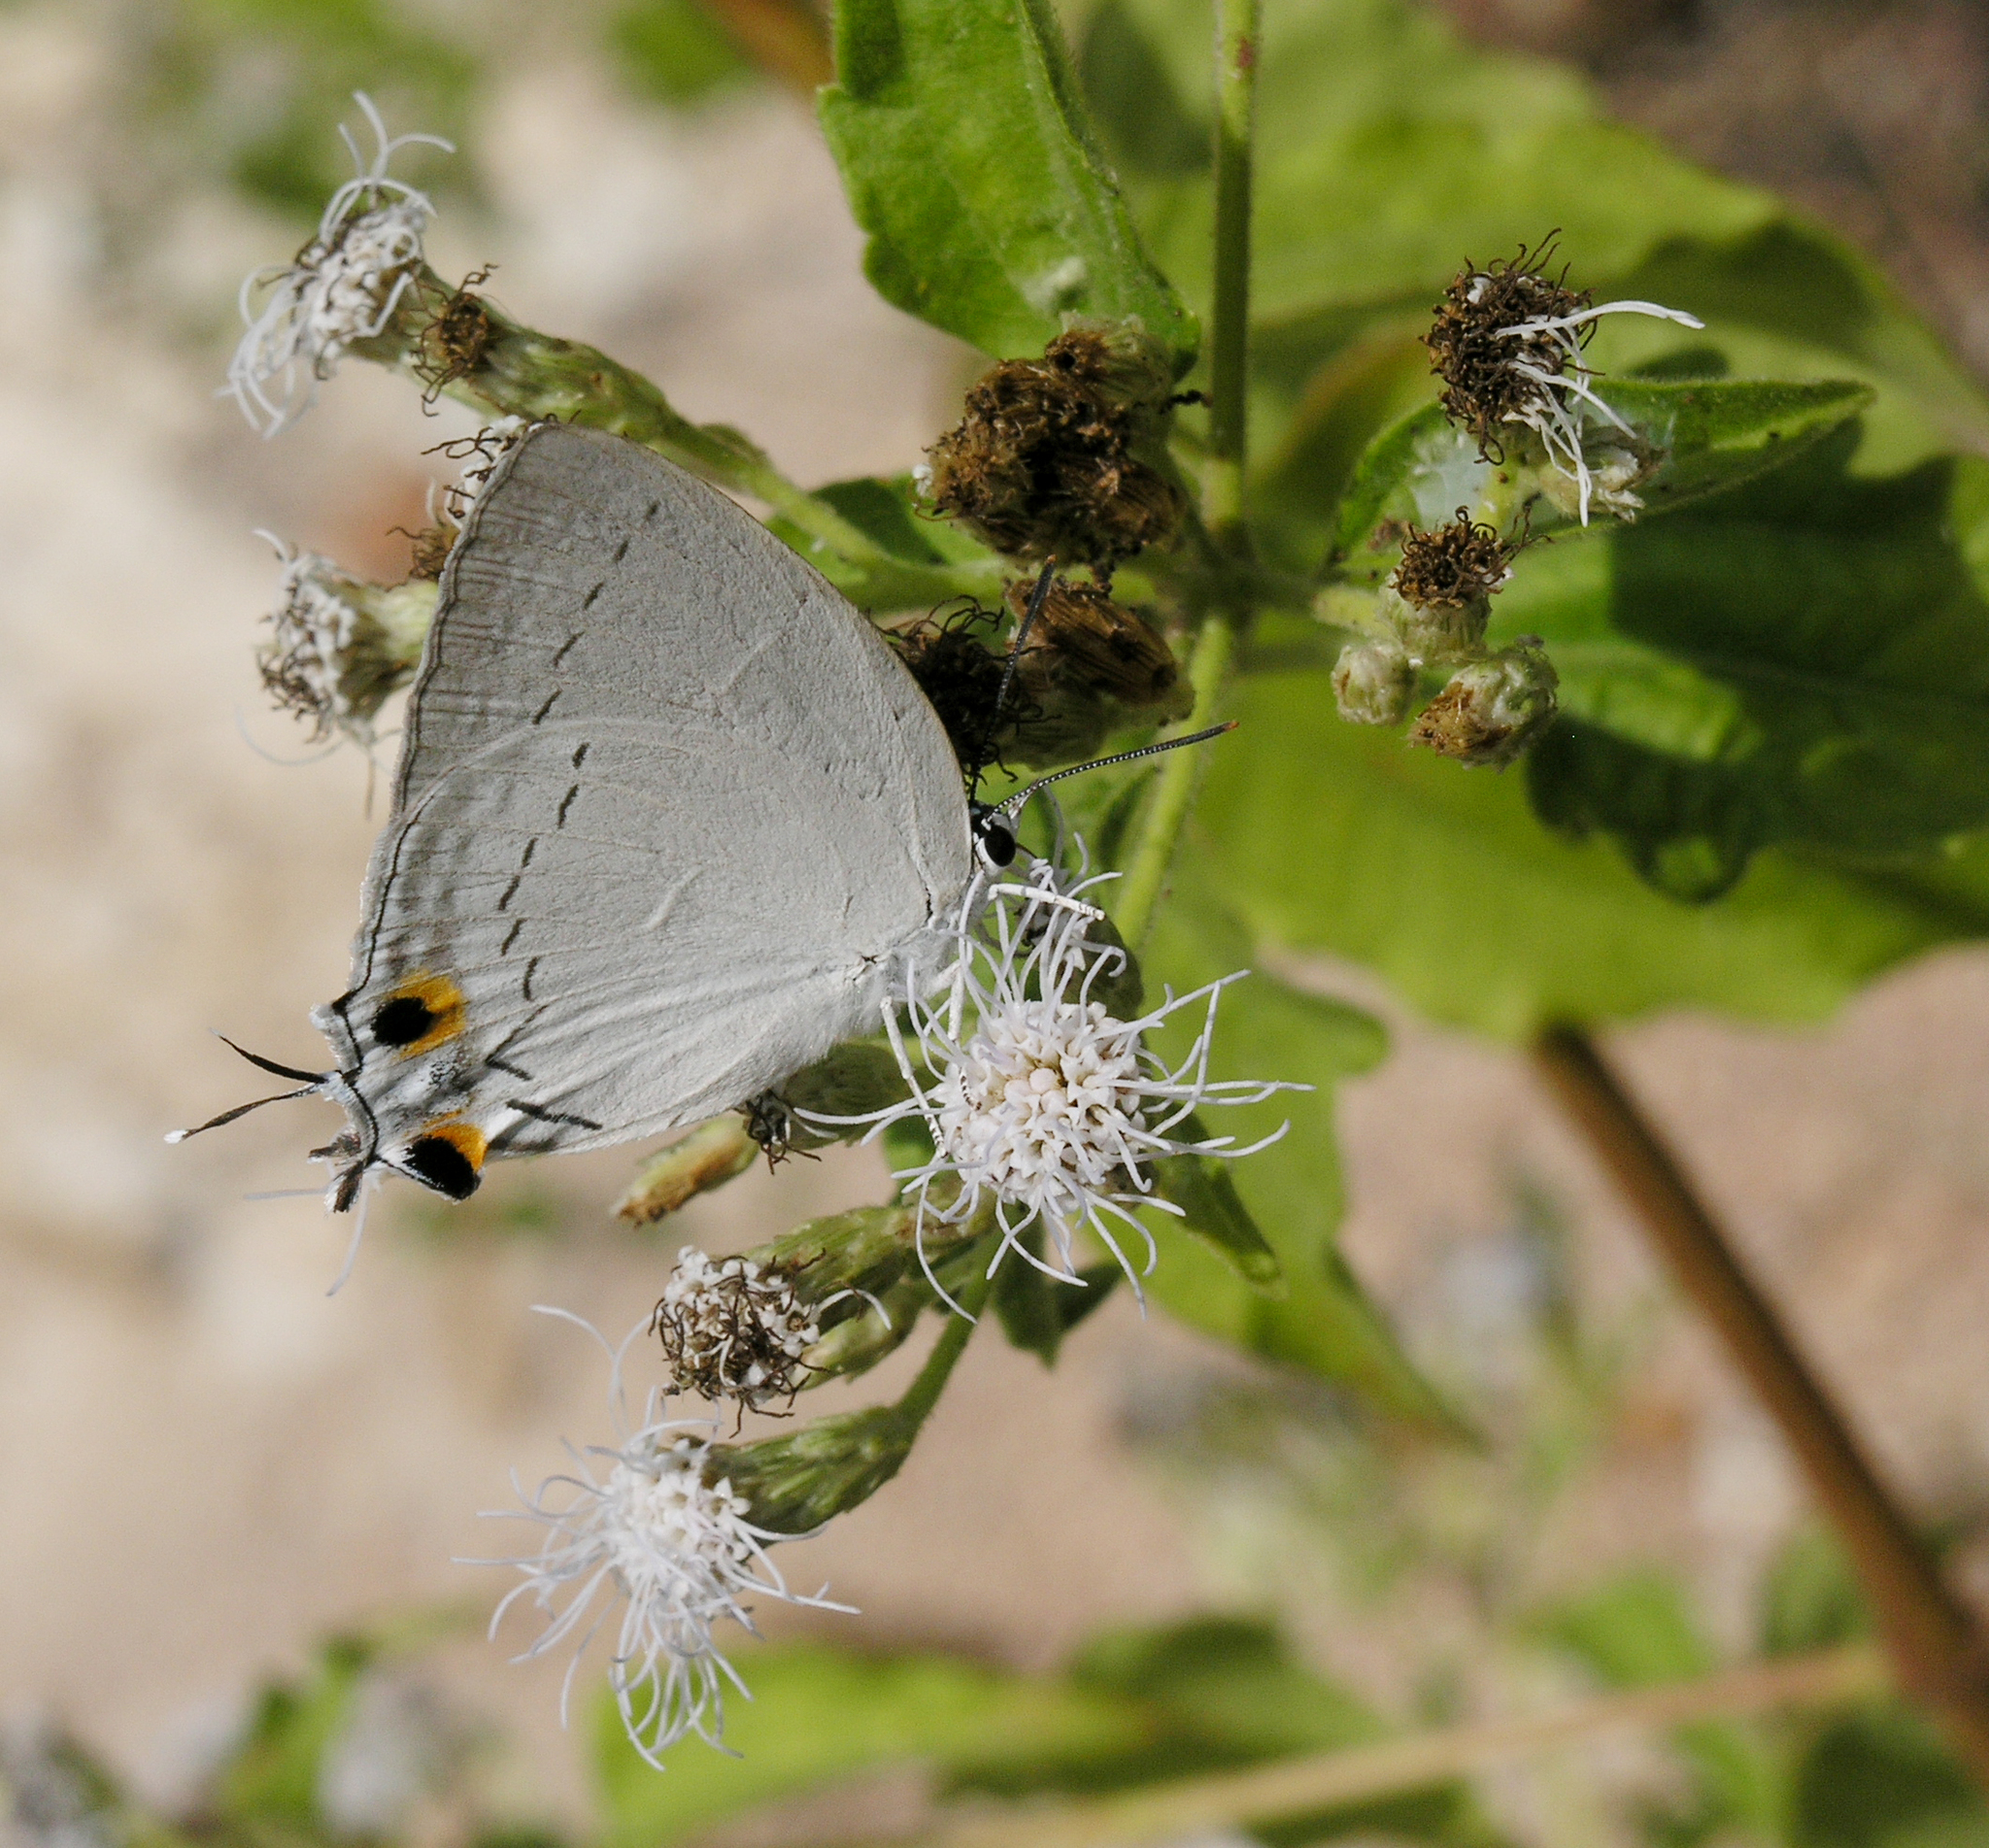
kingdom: Animalia
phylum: Arthropoda
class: Insecta
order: Lepidoptera
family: Lycaenidae
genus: Tajuria
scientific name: Tajuria cippus
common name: Peacock royal
